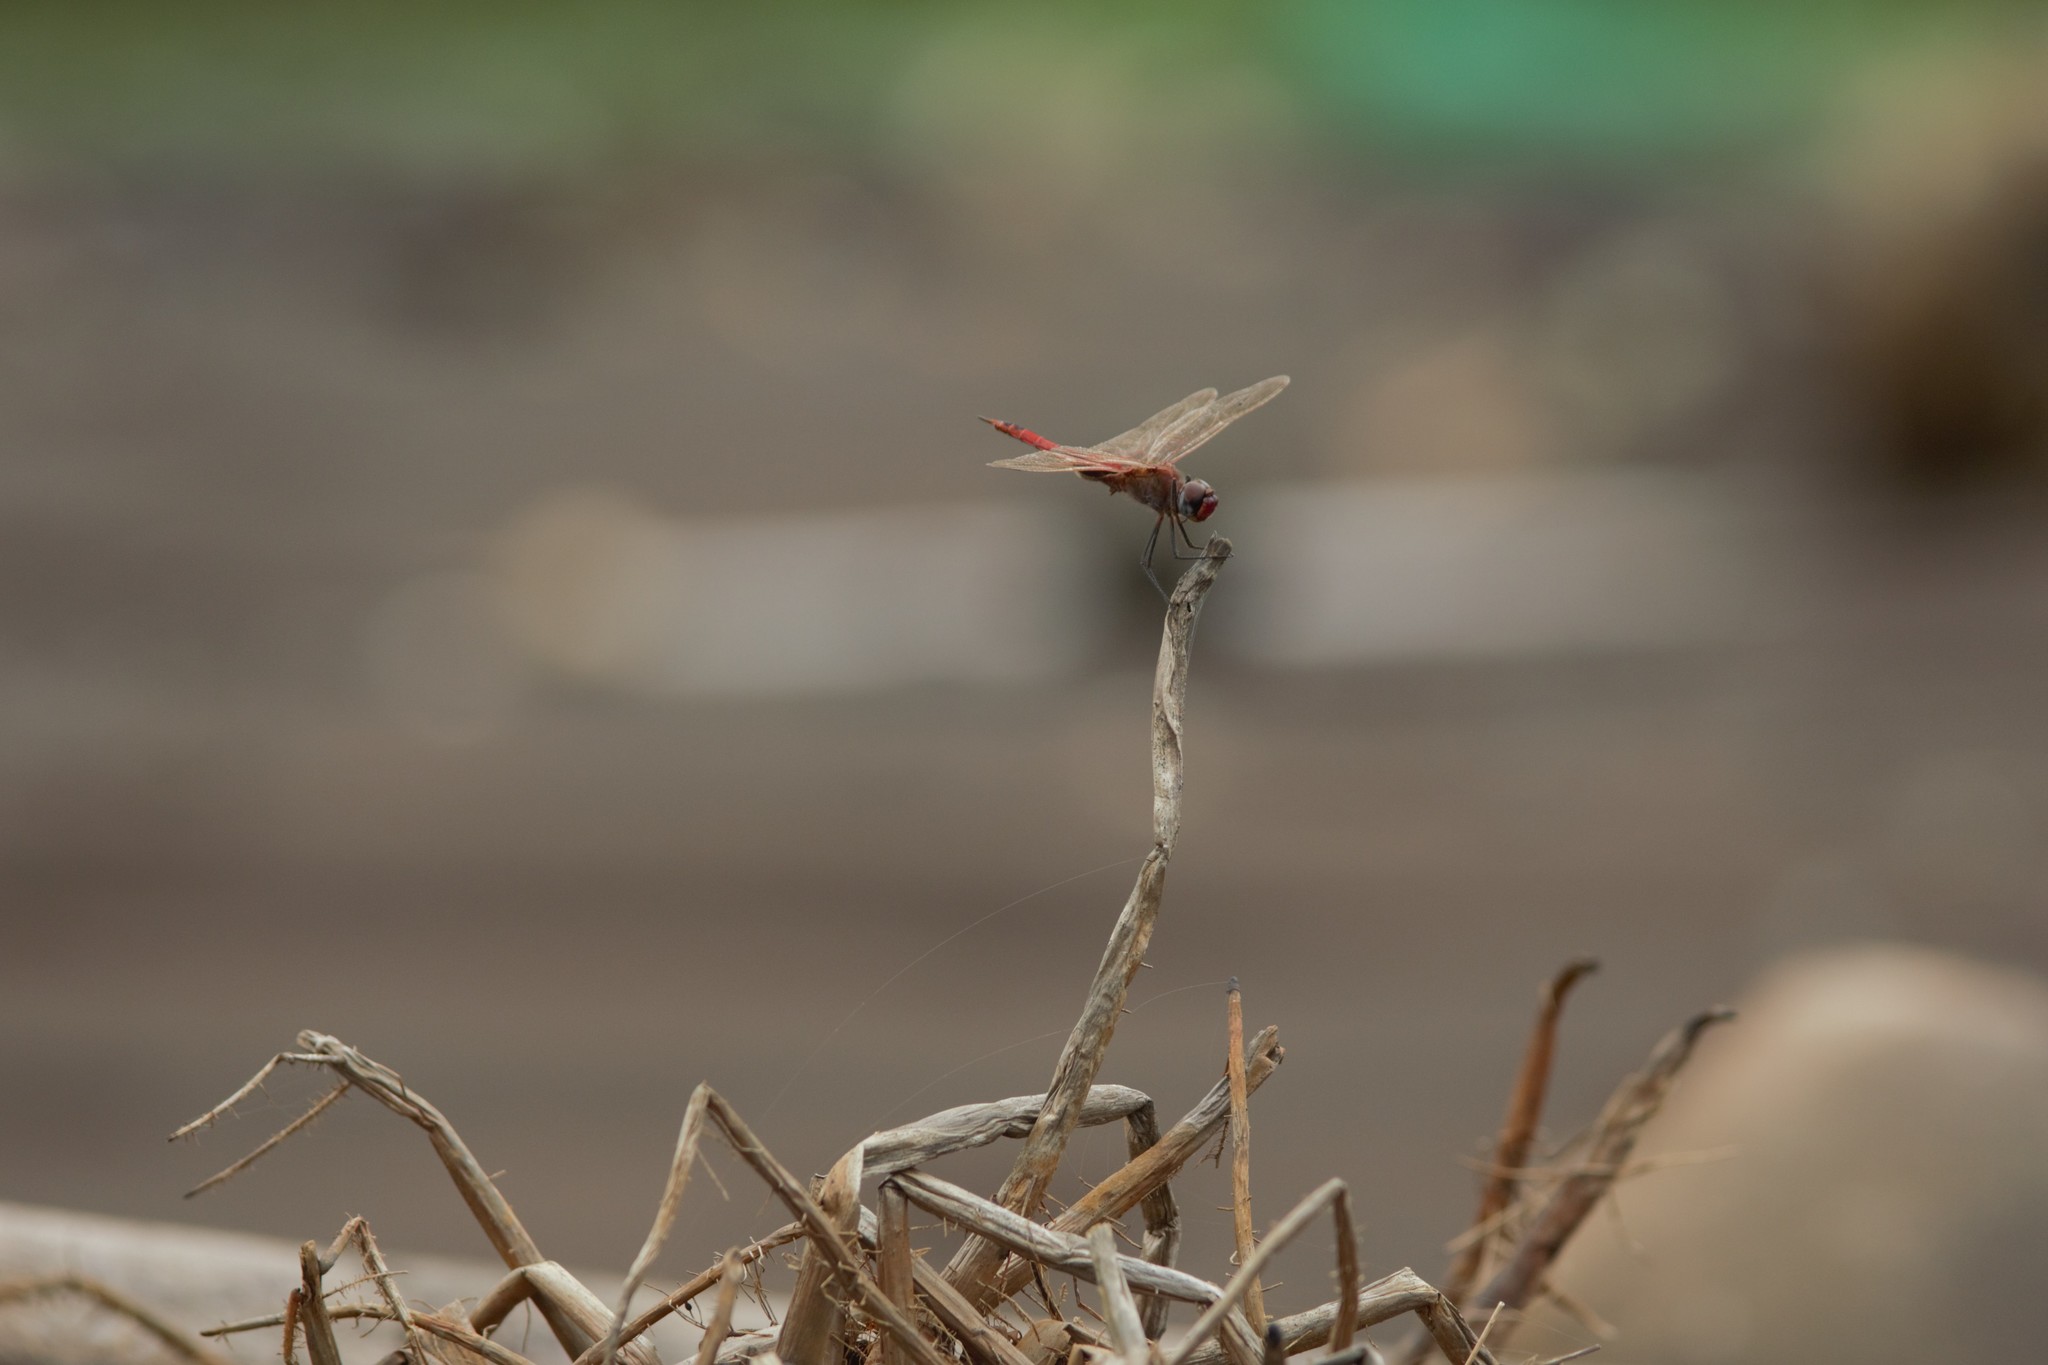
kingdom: Animalia
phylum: Arthropoda
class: Insecta
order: Odonata
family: Libellulidae
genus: Tramea
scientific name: Tramea limbata
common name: Ferruginous glider
